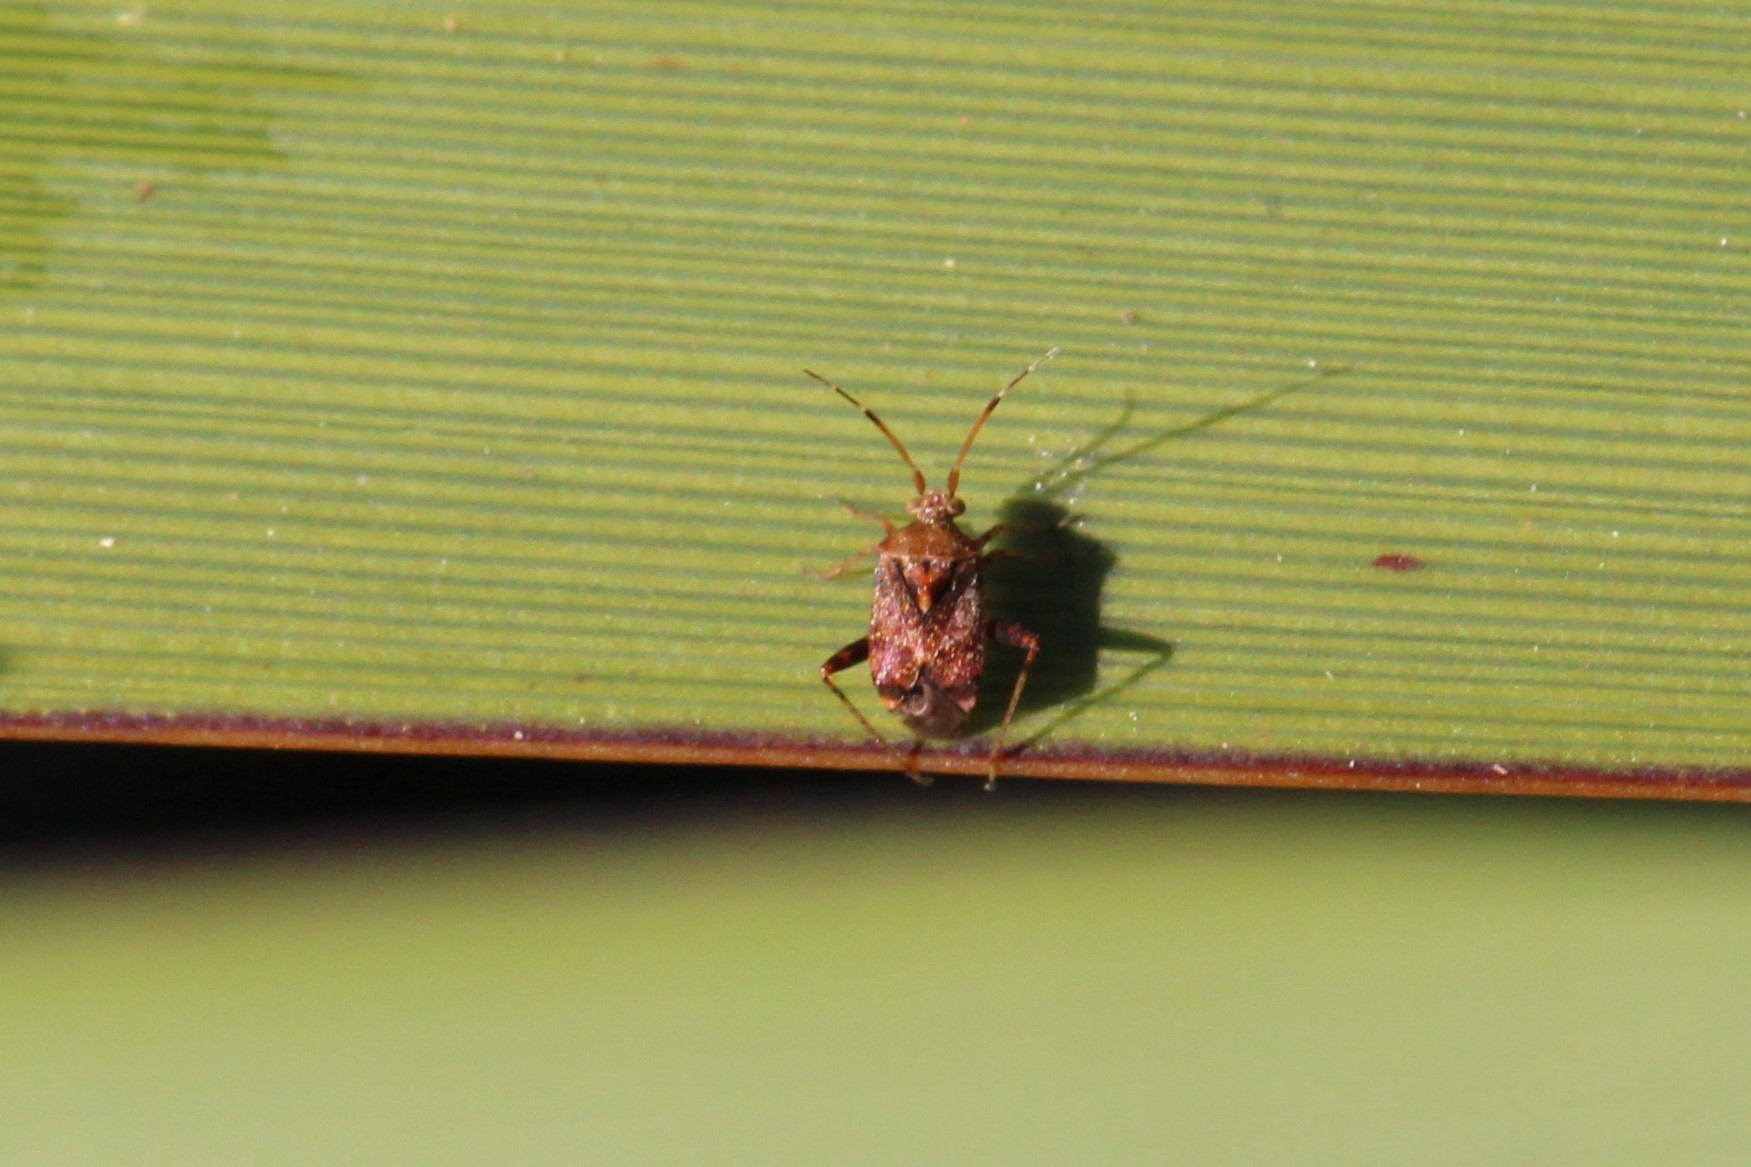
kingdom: Animalia
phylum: Arthropoda
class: Insecta
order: Hemiptera
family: Miridae
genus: Sidnia
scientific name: Sidnia kinbergi
